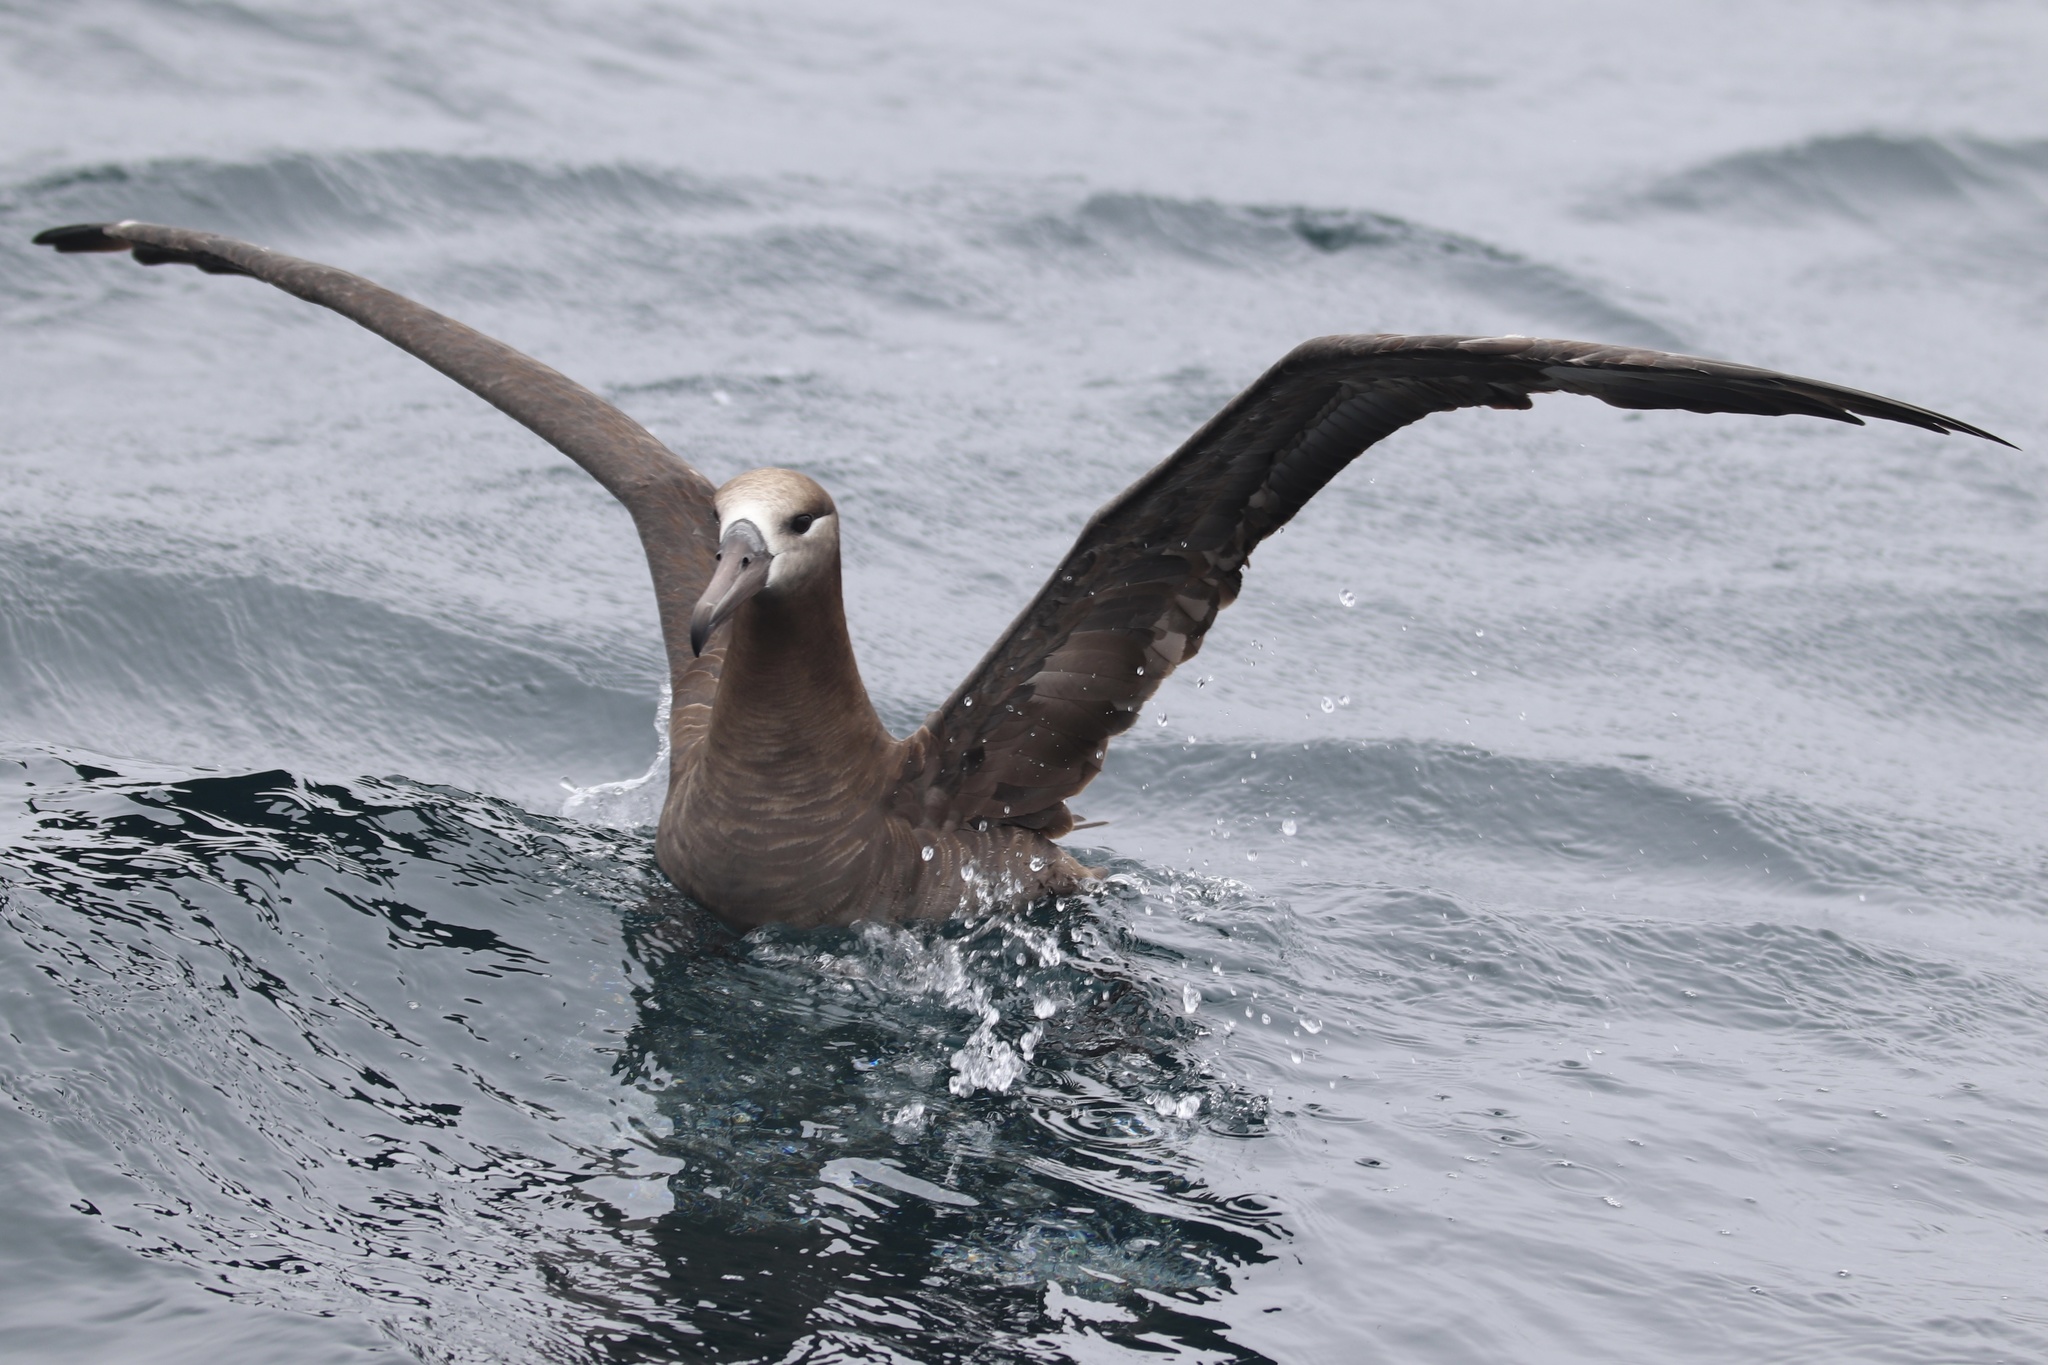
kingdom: Animalia
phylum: Chordata
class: Aves
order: Procellariiformes
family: Diomedeidae
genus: Phoebastria
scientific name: Phoebastria nigripes
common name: Black-footed albatross
